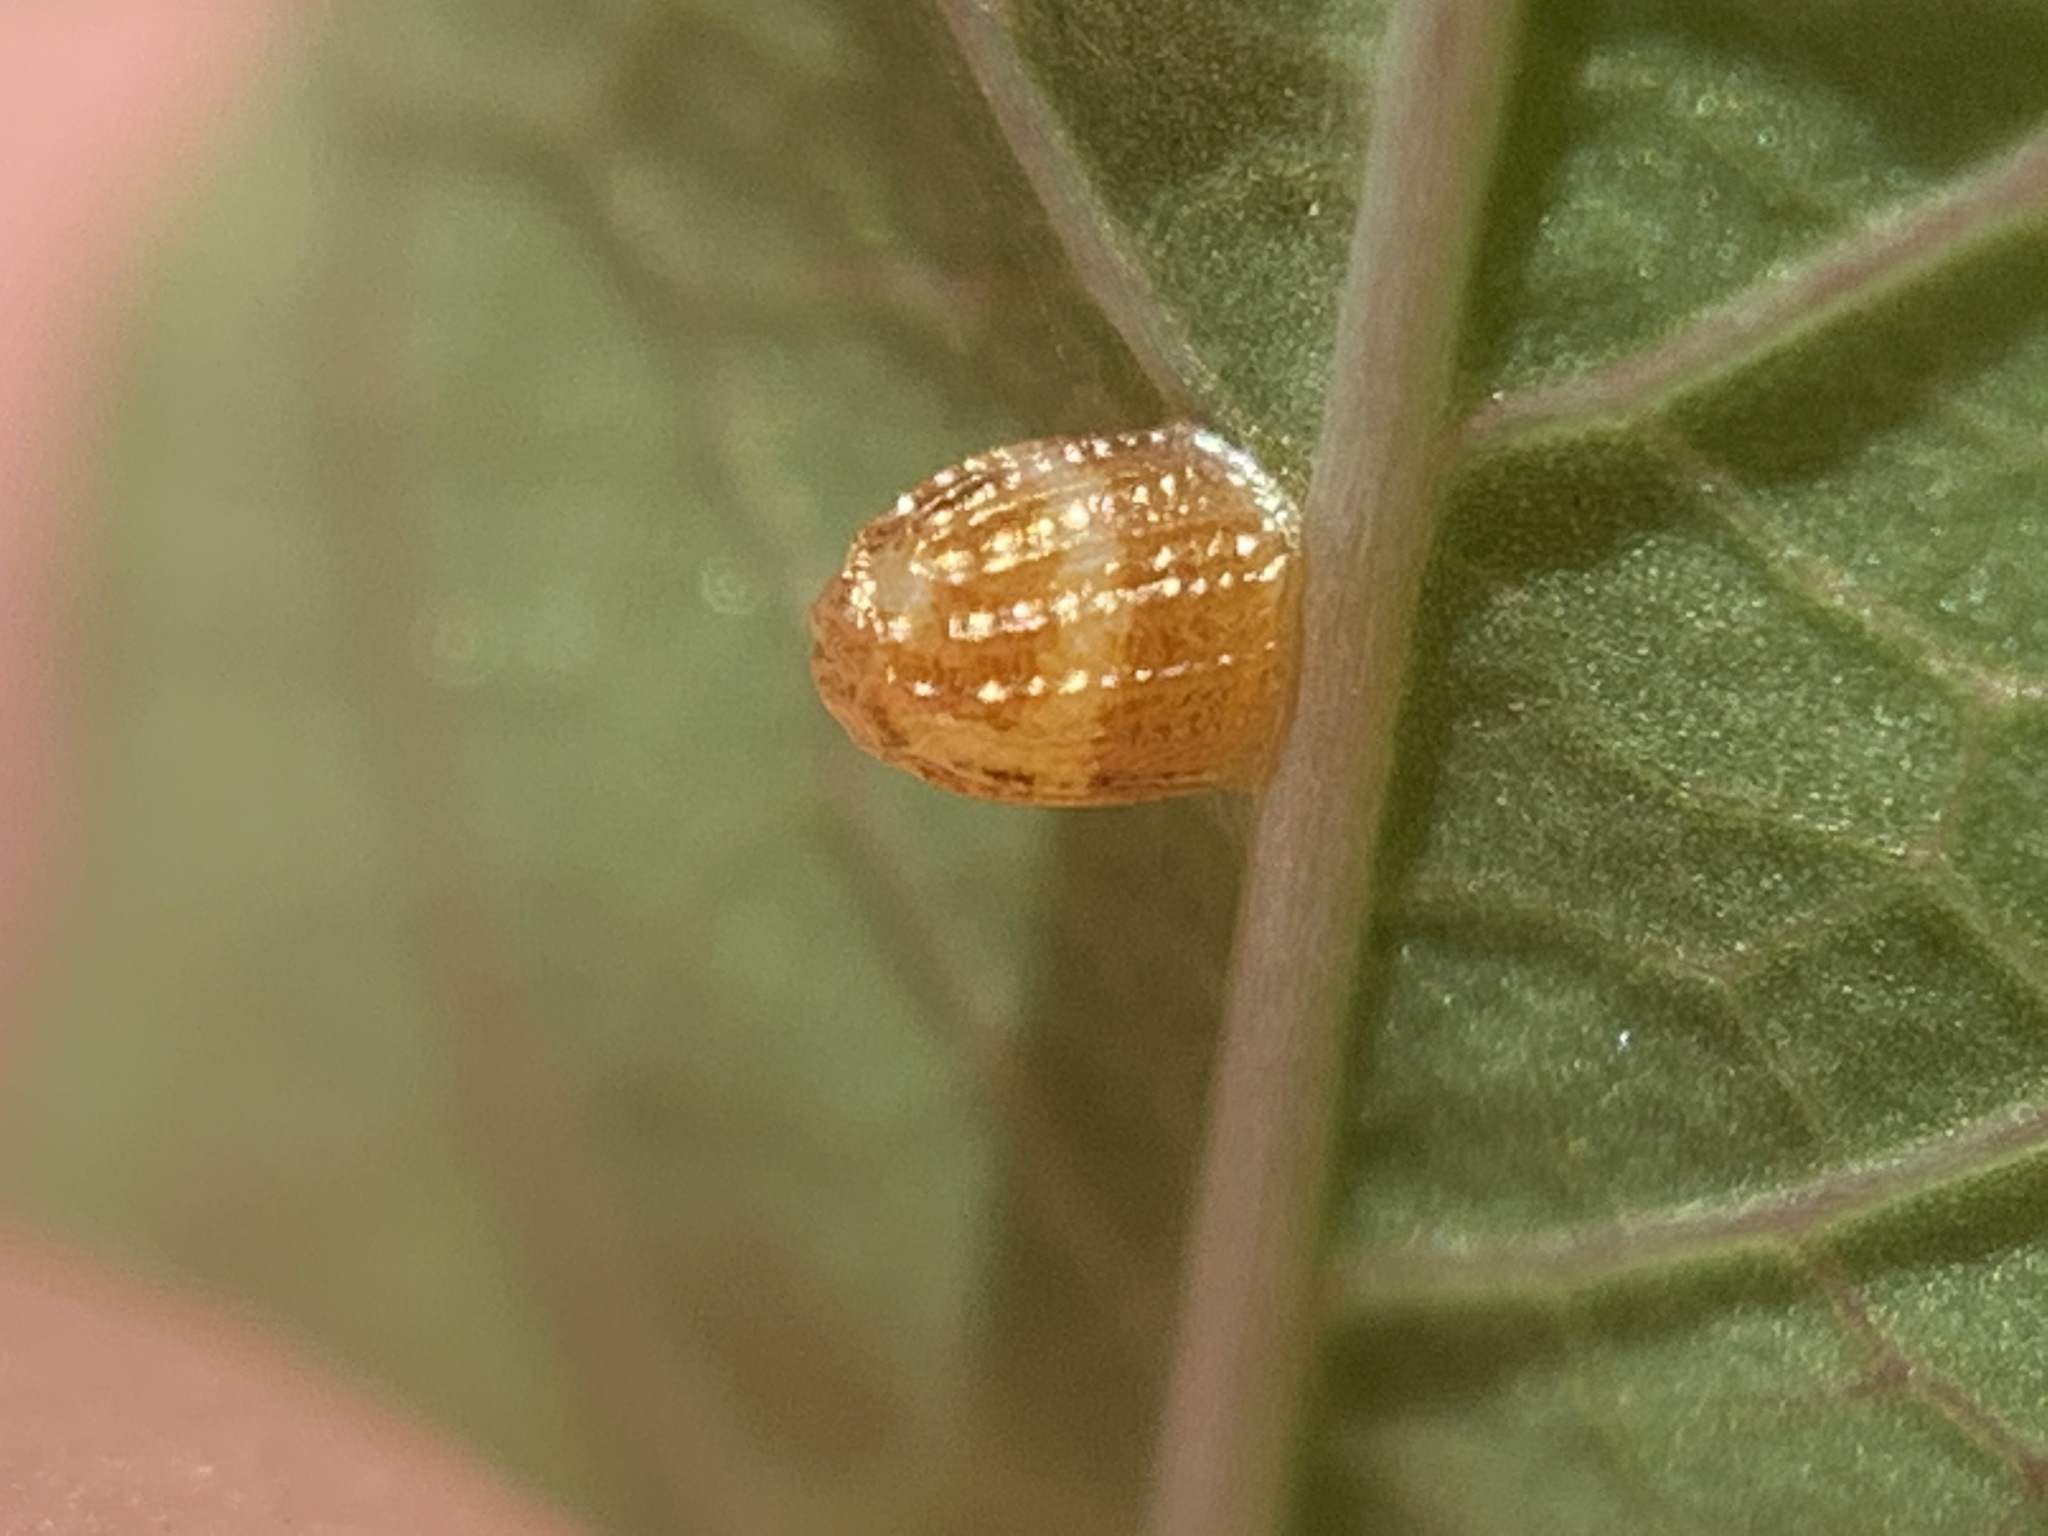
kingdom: Animalia
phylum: Arthropoda
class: Insecta
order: Lepidoptera
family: Nymphalidae
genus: Dione
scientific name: Dione vanillae
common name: Gulf fritillary
